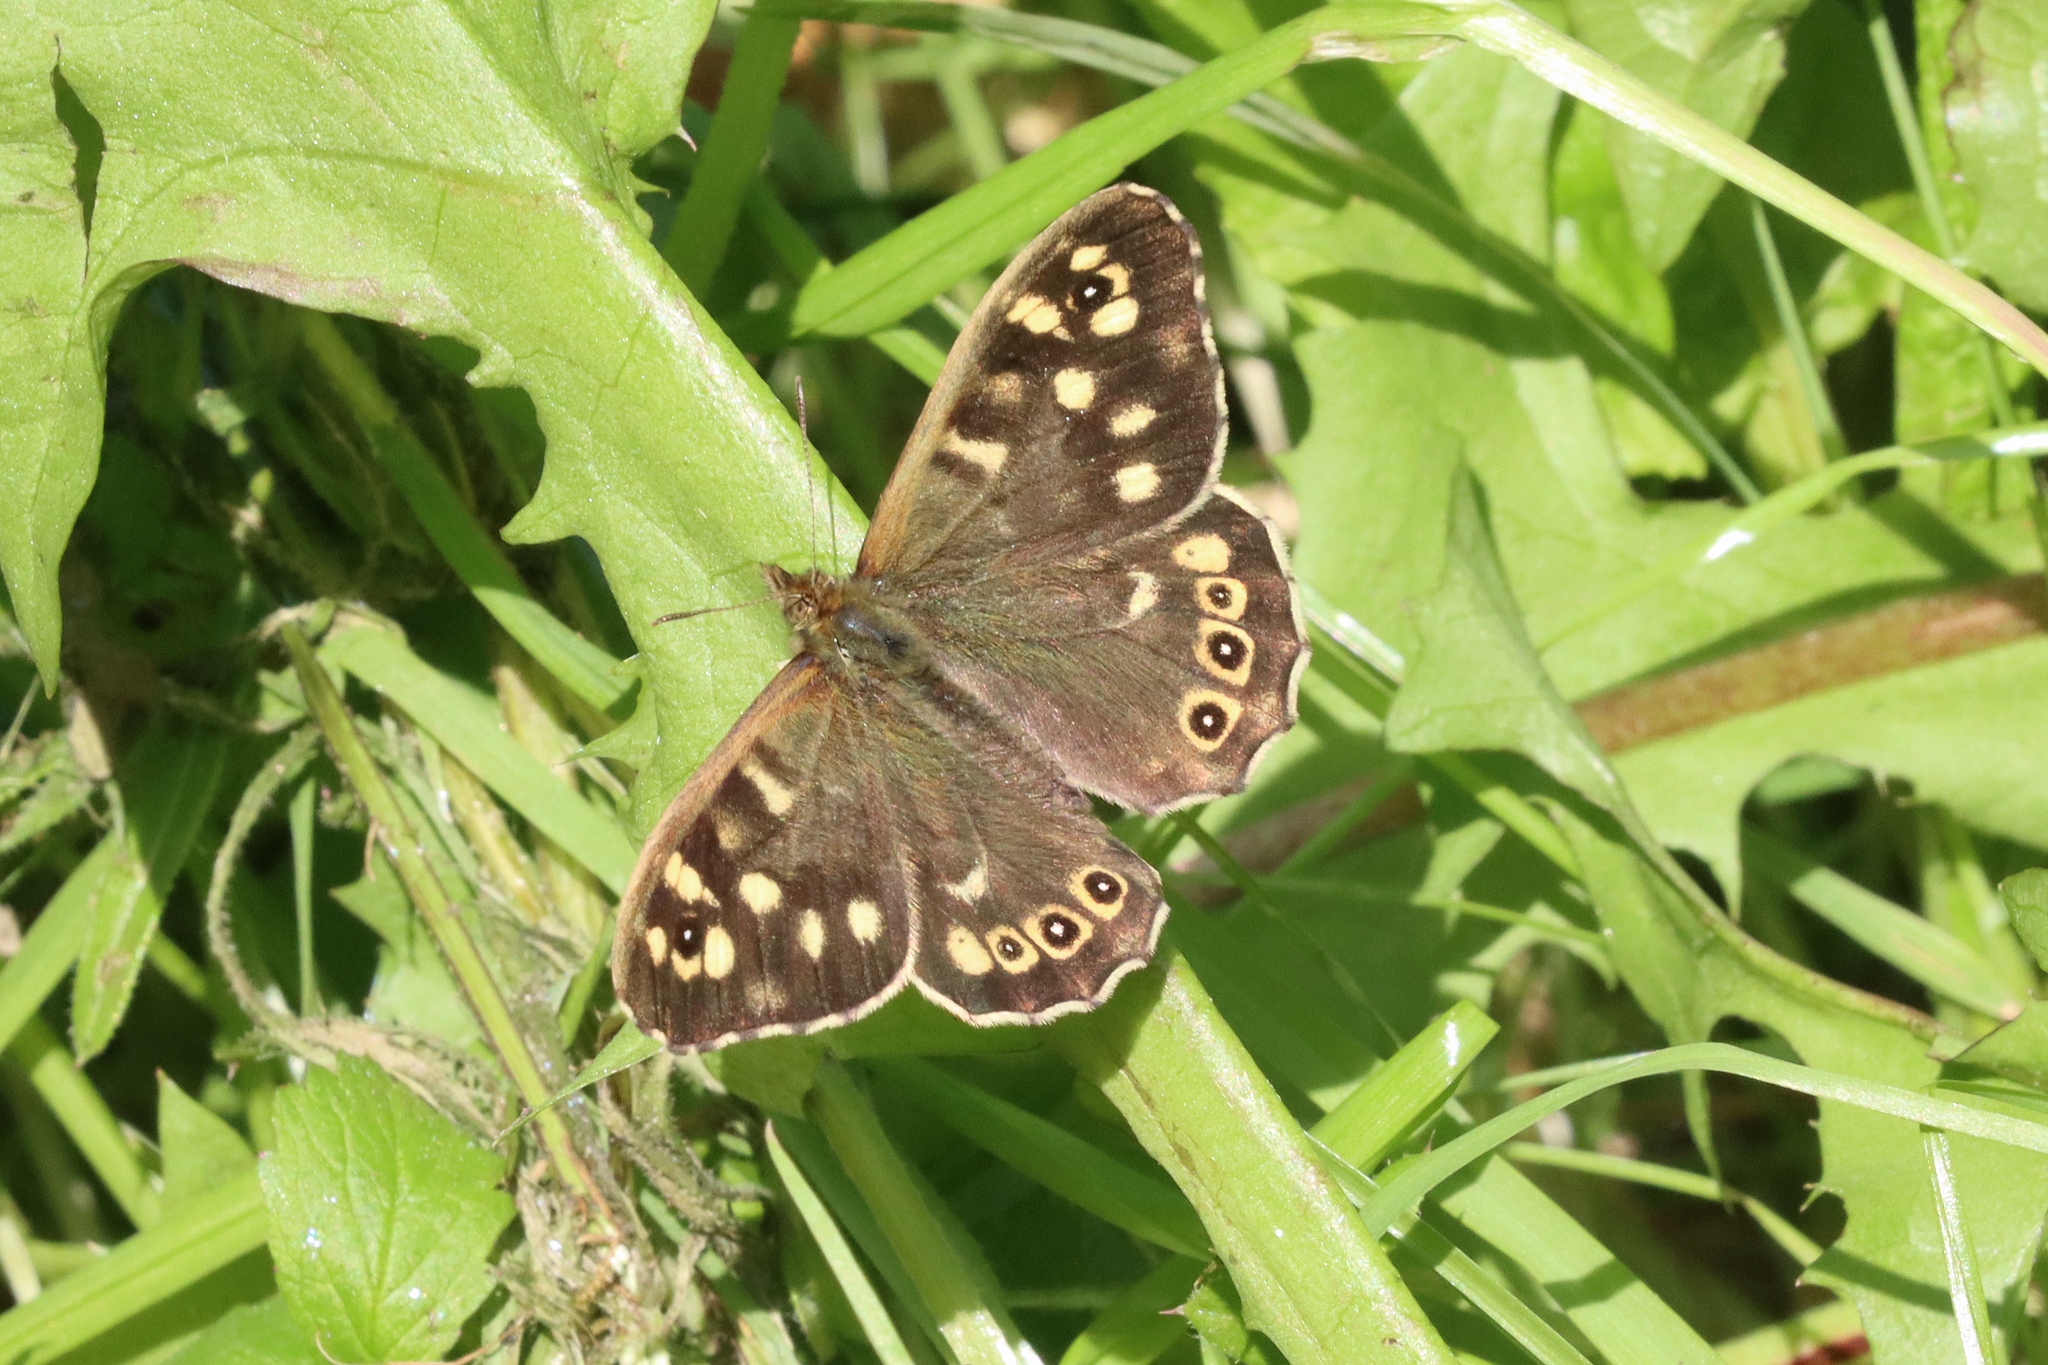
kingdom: Animalia
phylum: Arthropoda
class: Insecta
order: Lepidoptera
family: Nymphalidae
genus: Pararge
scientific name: Pararge aegeria
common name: Speckled wood
